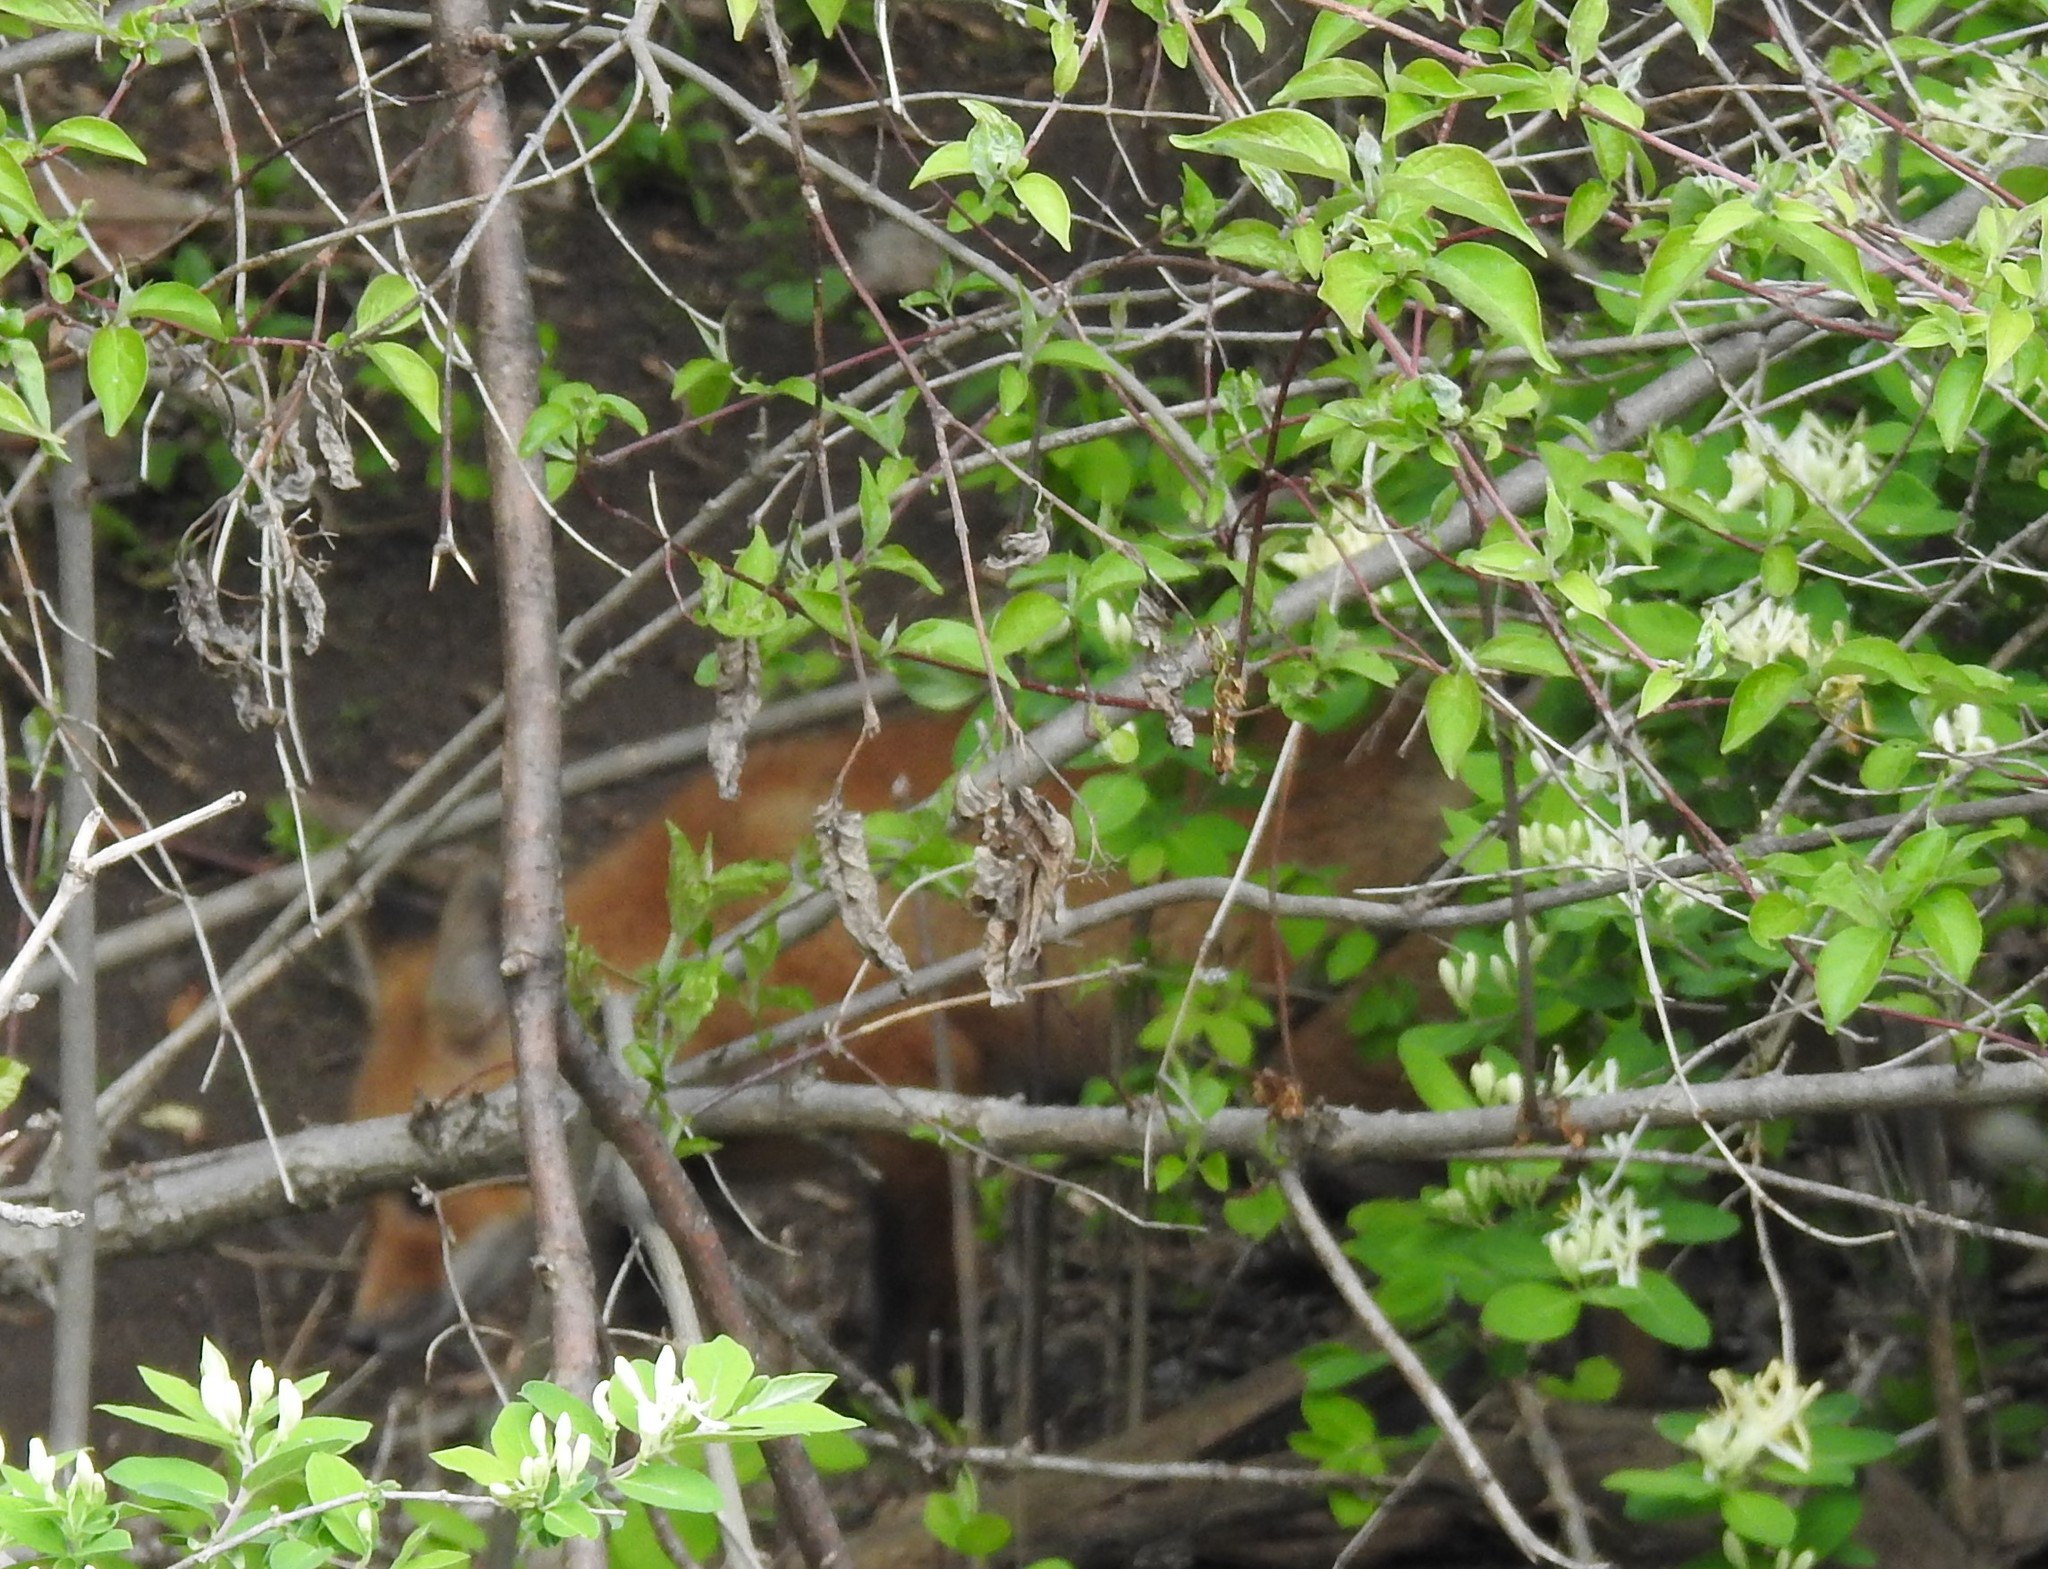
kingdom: Animalia
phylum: Chordata
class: Mammalia
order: Carnivora
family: Canidae
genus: Vulpes
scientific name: Vulpes vulpes
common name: Red fox
